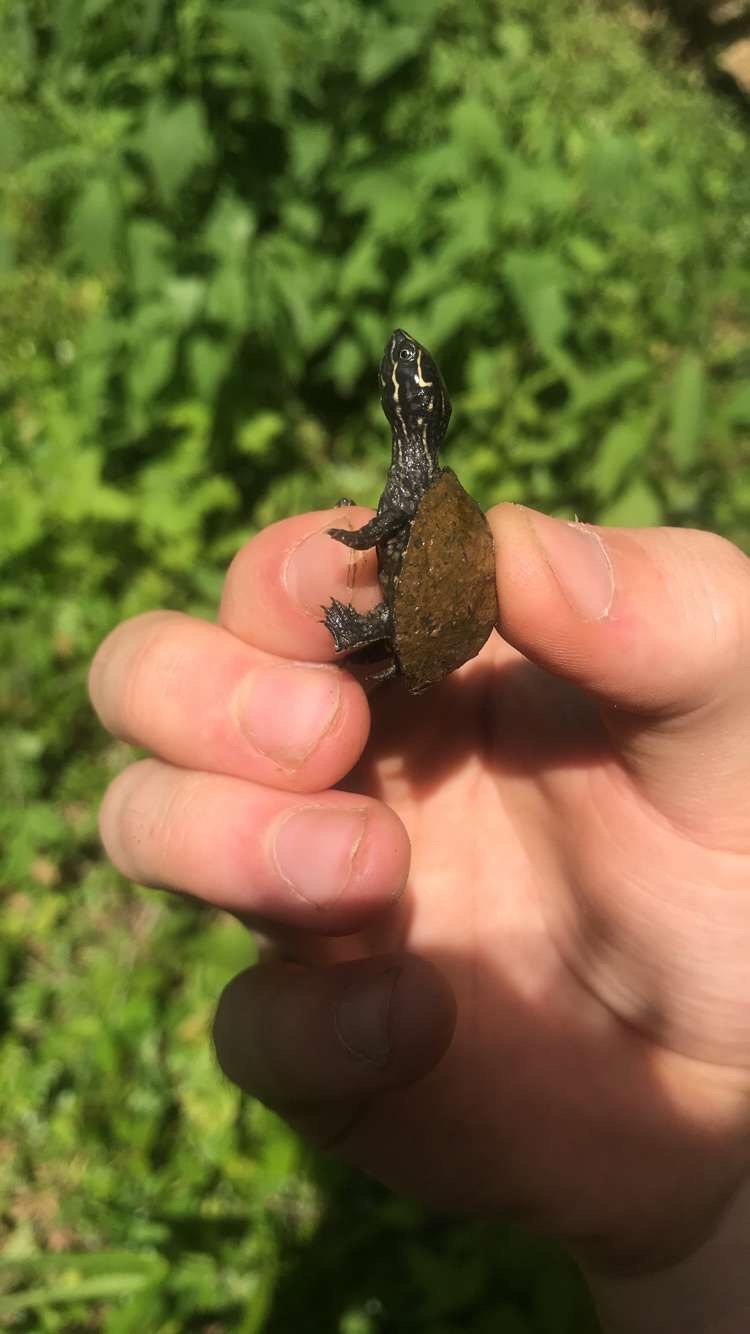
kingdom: Animalia
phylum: Chordata
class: Testudines
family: Kinosternidae
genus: Sternotherus
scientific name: Sternotherus odoratus
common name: Common musk turtle
